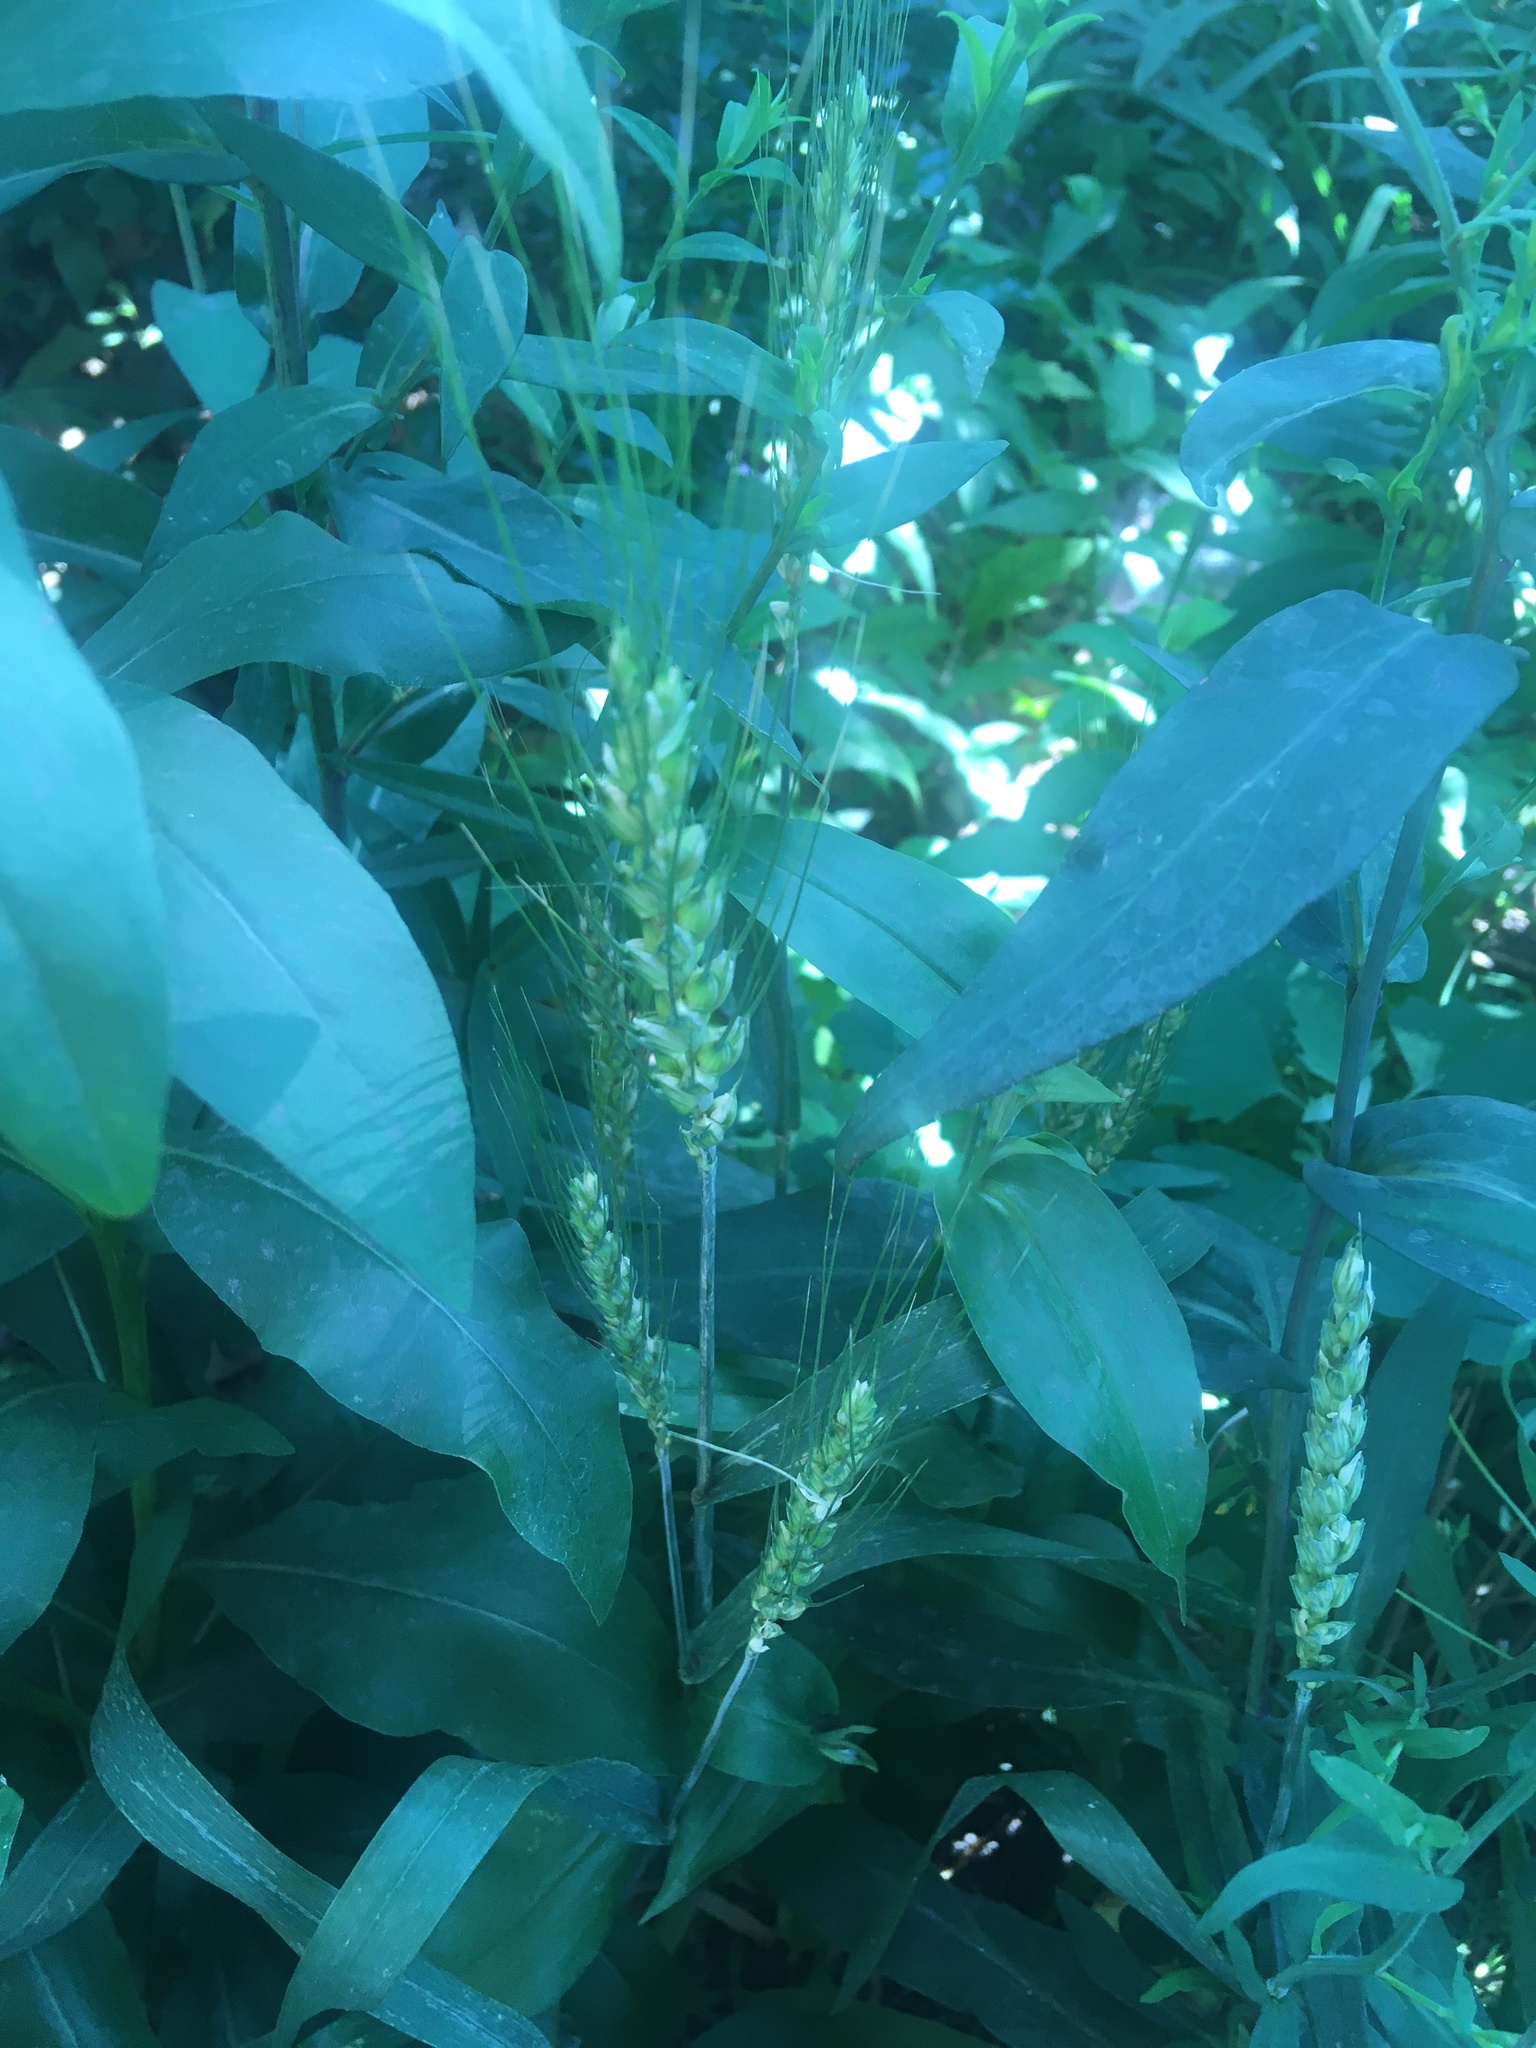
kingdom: Plantae
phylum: Tracheophyta
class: Liliopsida
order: Poales
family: Poaceae
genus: Triticum
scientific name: Triticum aestivum
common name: Common wheat
